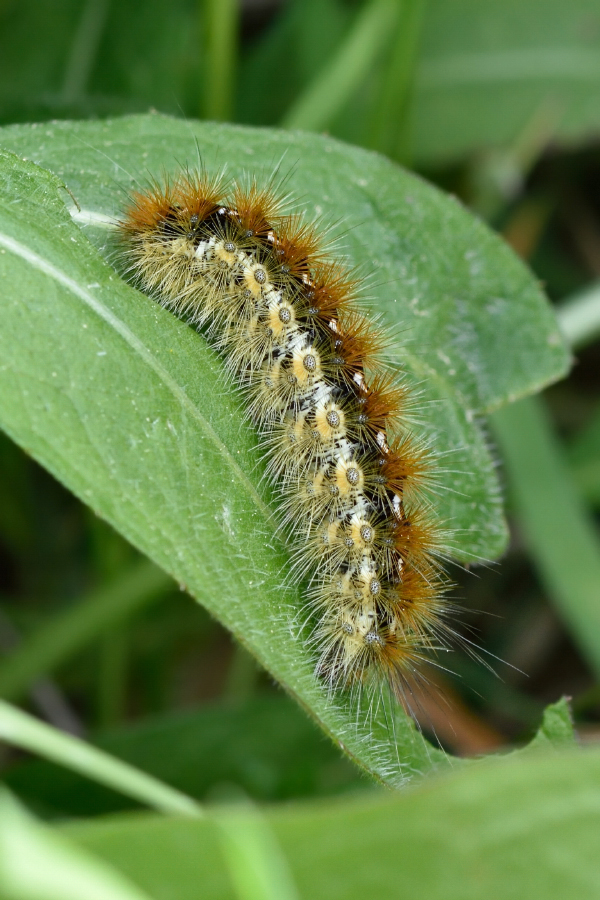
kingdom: Animalia
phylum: Arthropoda
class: Insecta
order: Lepidoptera
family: Erebidae
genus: Rhyparia
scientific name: Rhyparia purpurata
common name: Purple tiger
